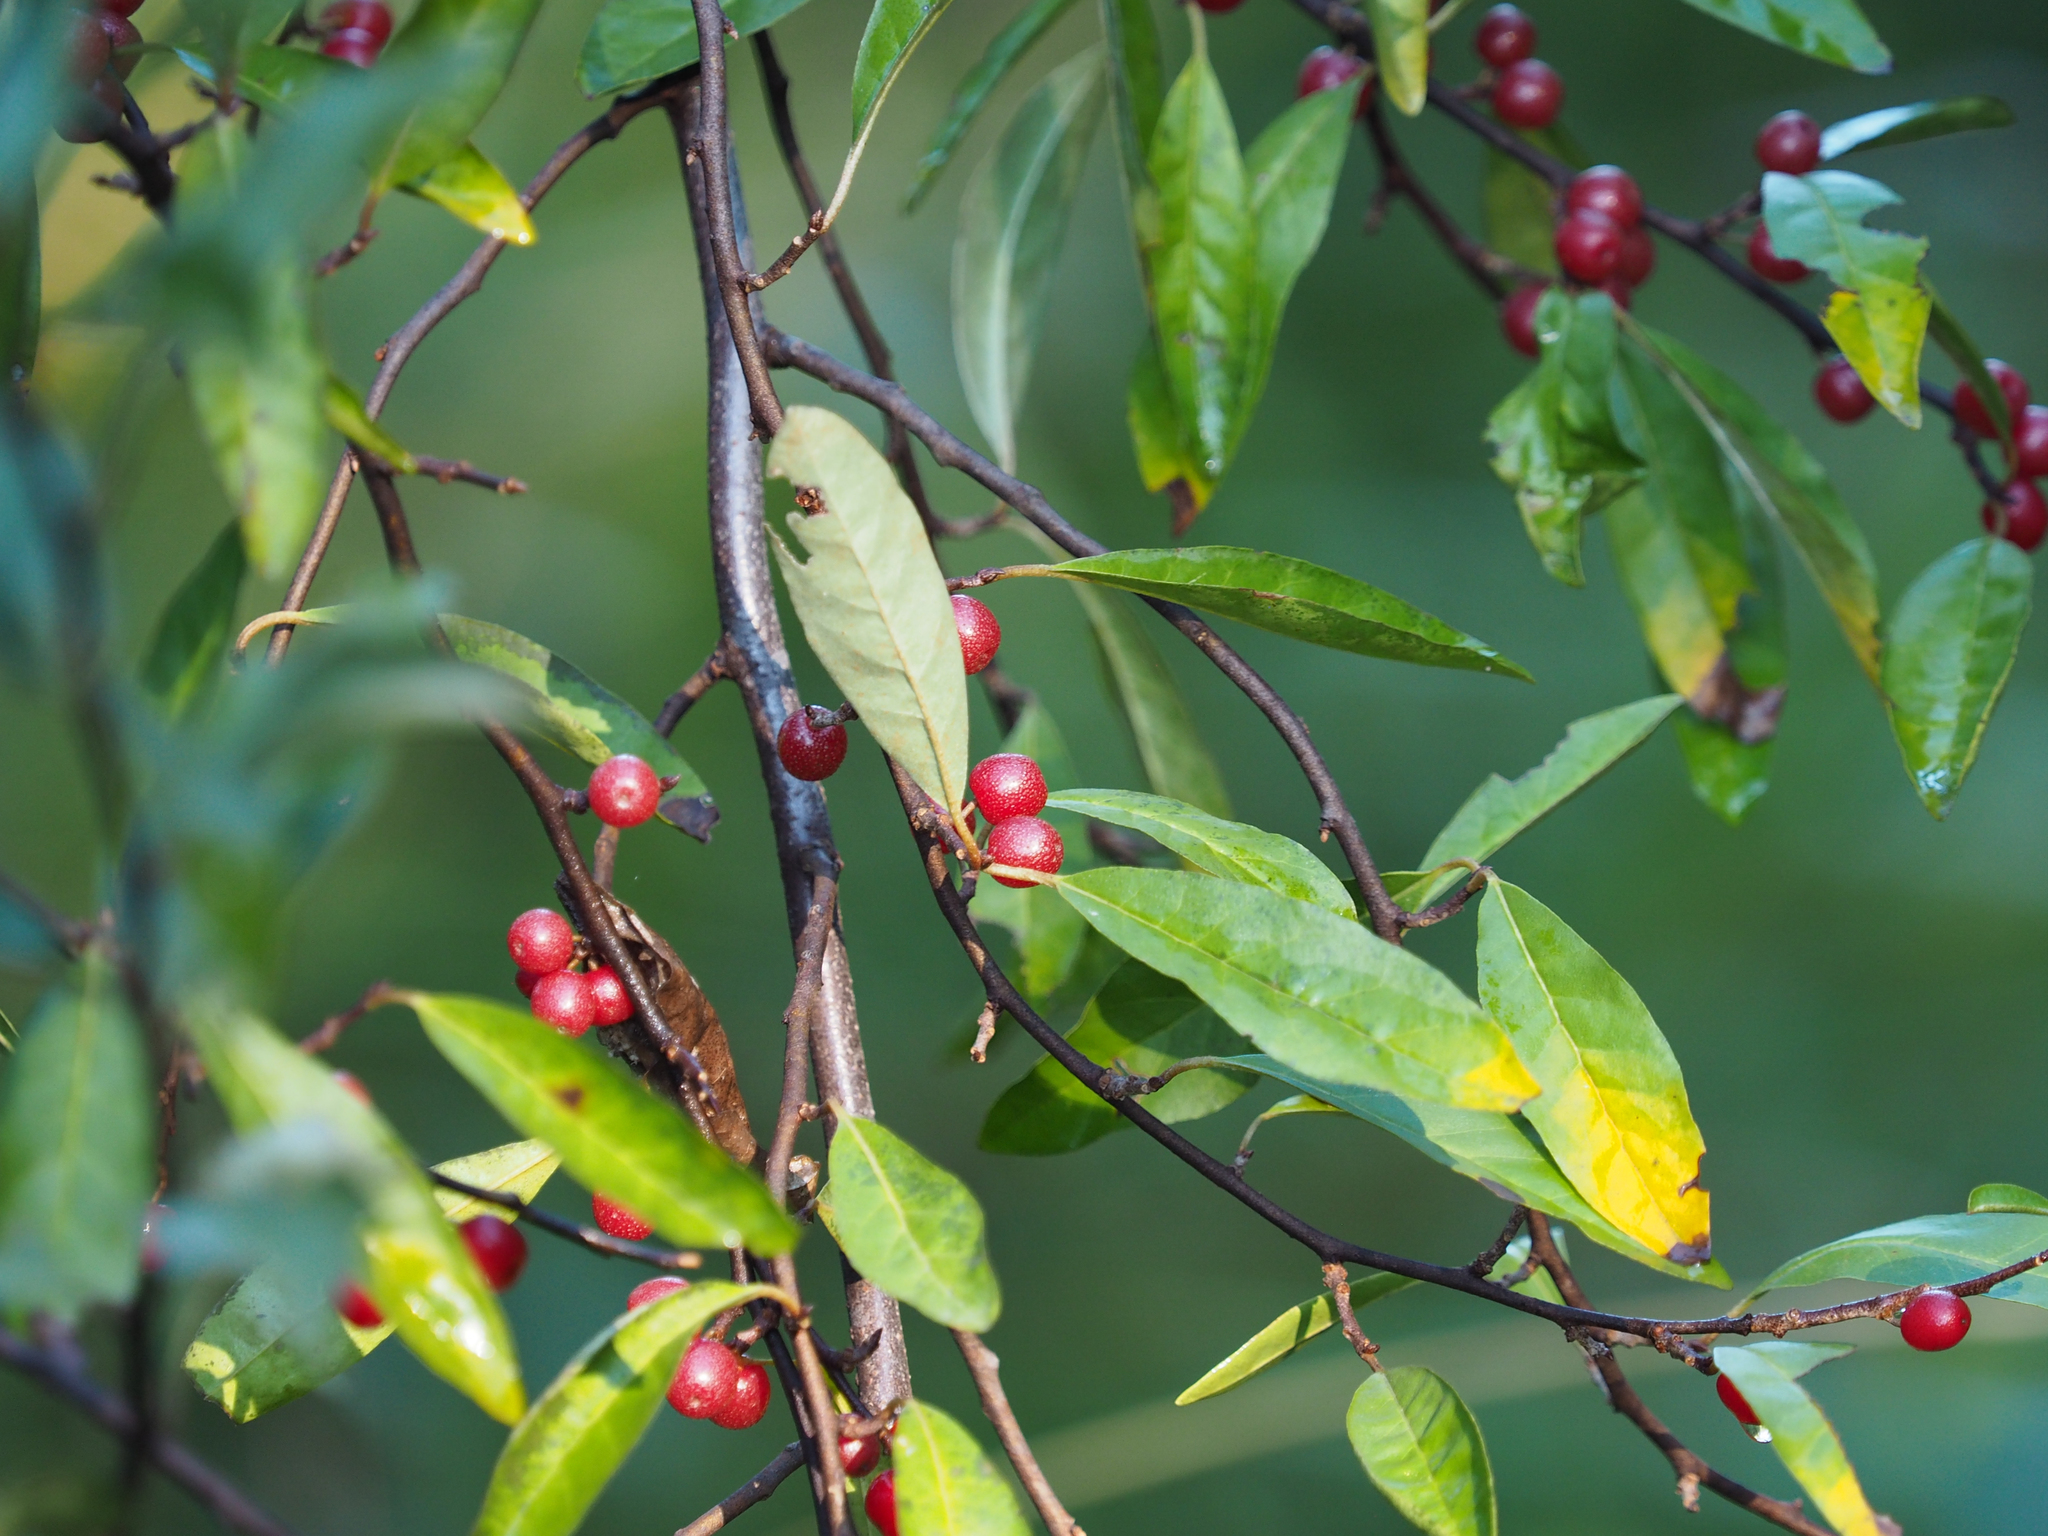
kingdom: Plantae
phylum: Tracheophyta
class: Magnoliopsida
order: Rosales
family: Elaeagnaceae
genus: Elaeagnus
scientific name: Elaeagnus umbellata
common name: Autumn olive
